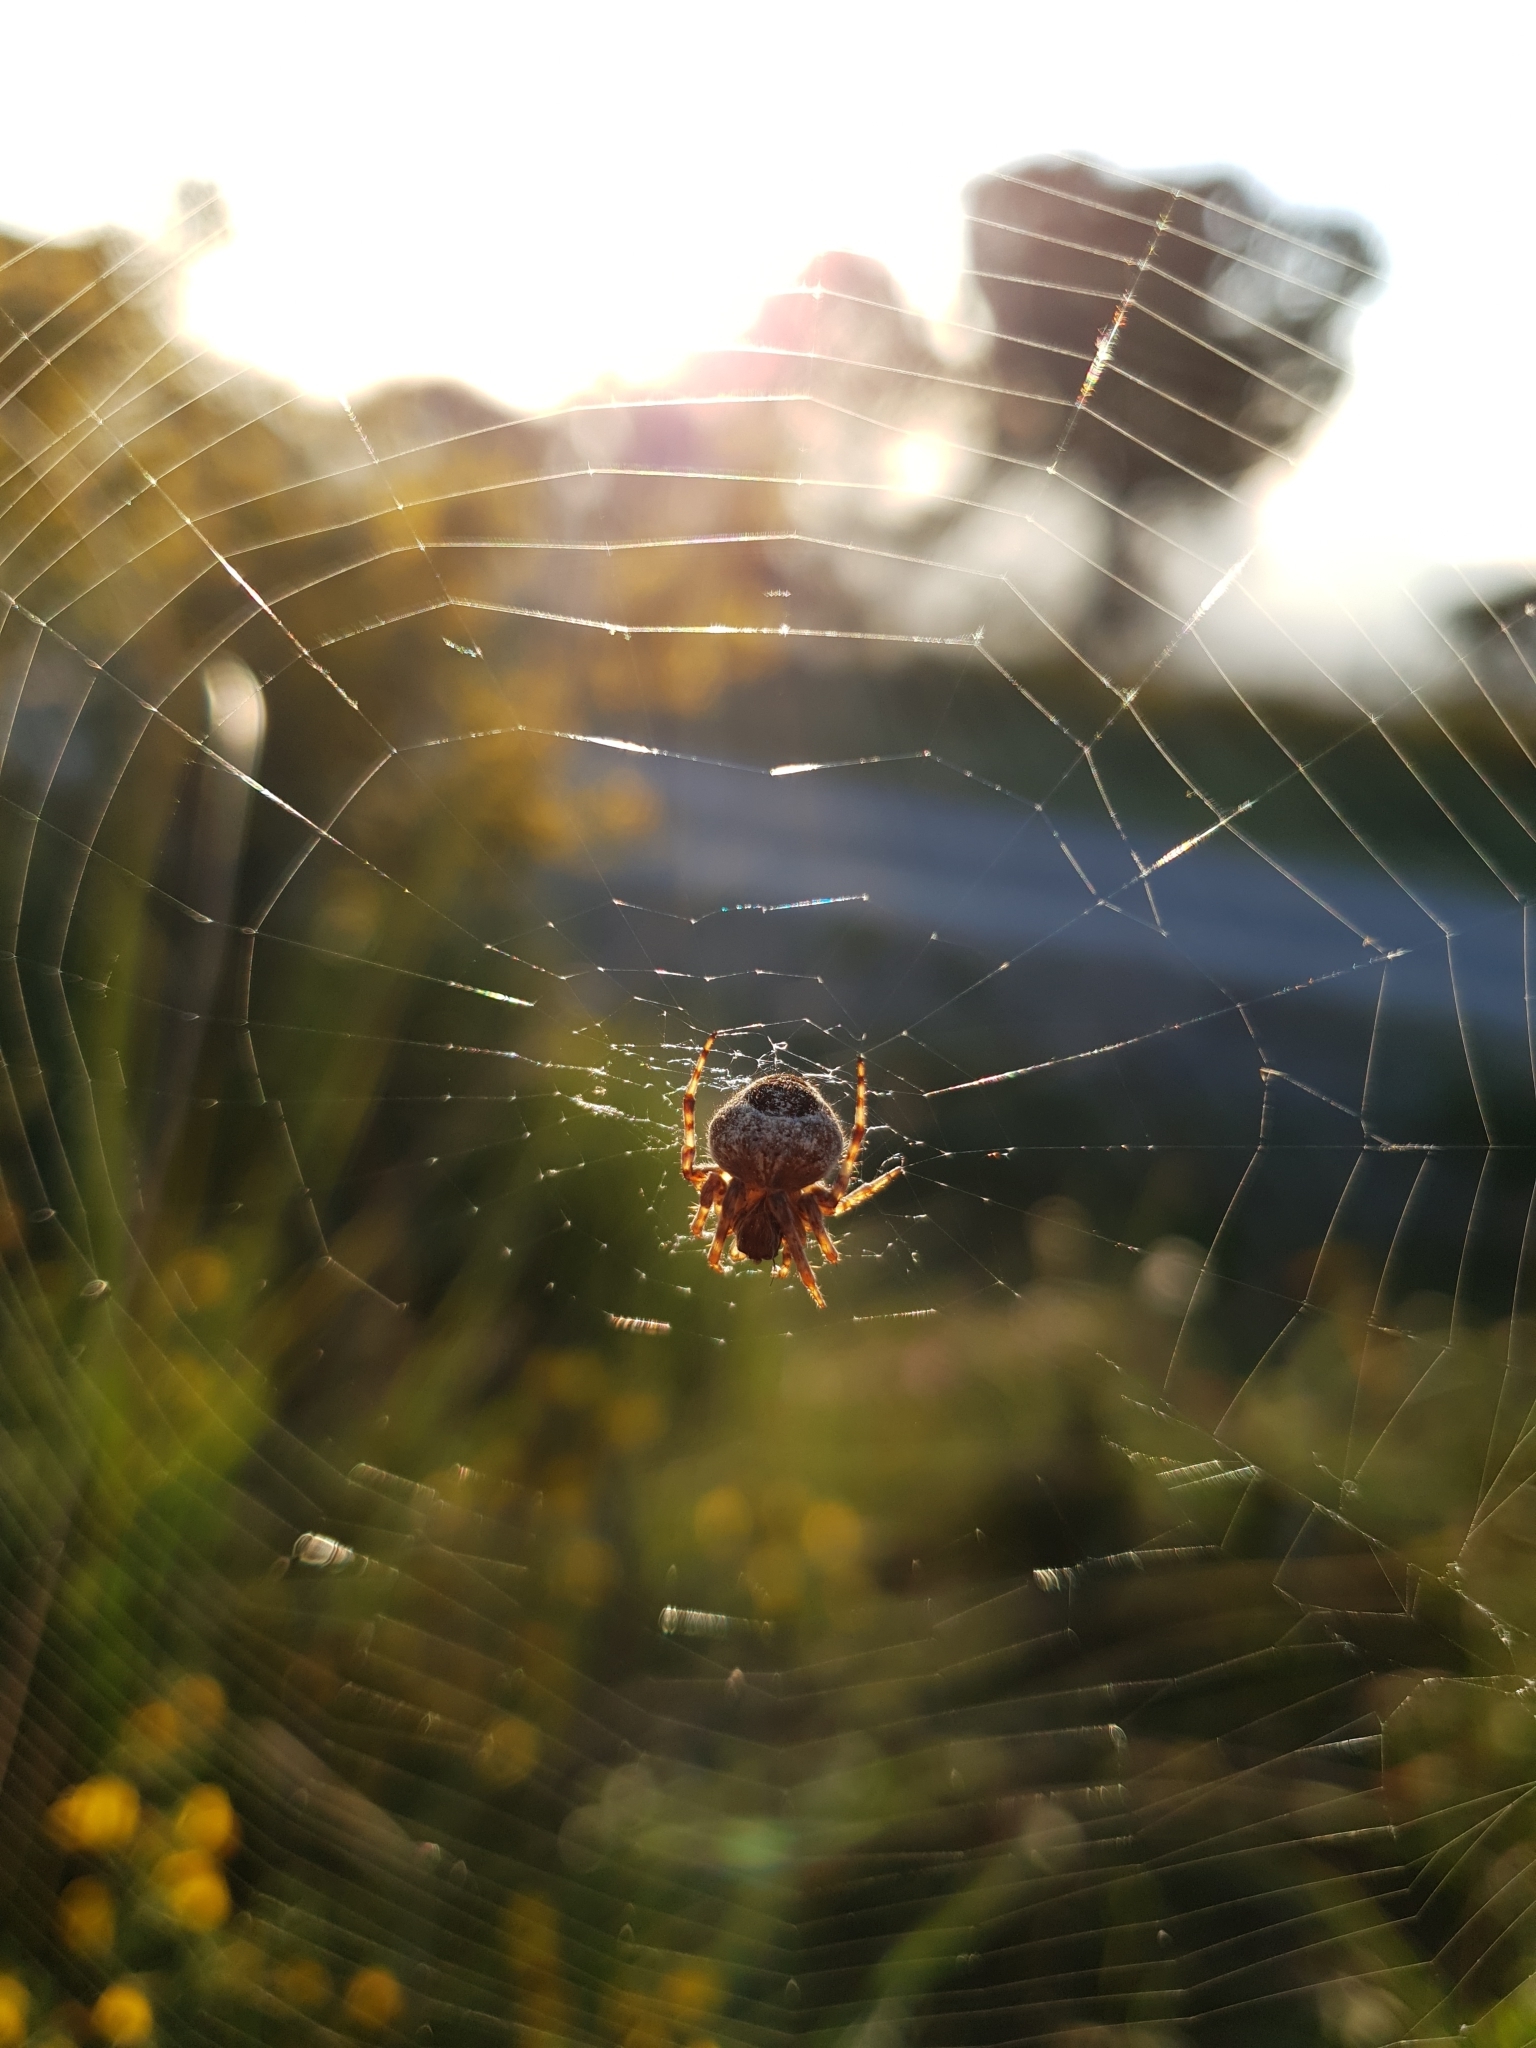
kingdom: Animalia
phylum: Arthropoda
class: Arachnida
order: Araneae
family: Araneidae
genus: Agalenatea
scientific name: Agalenatea redii
